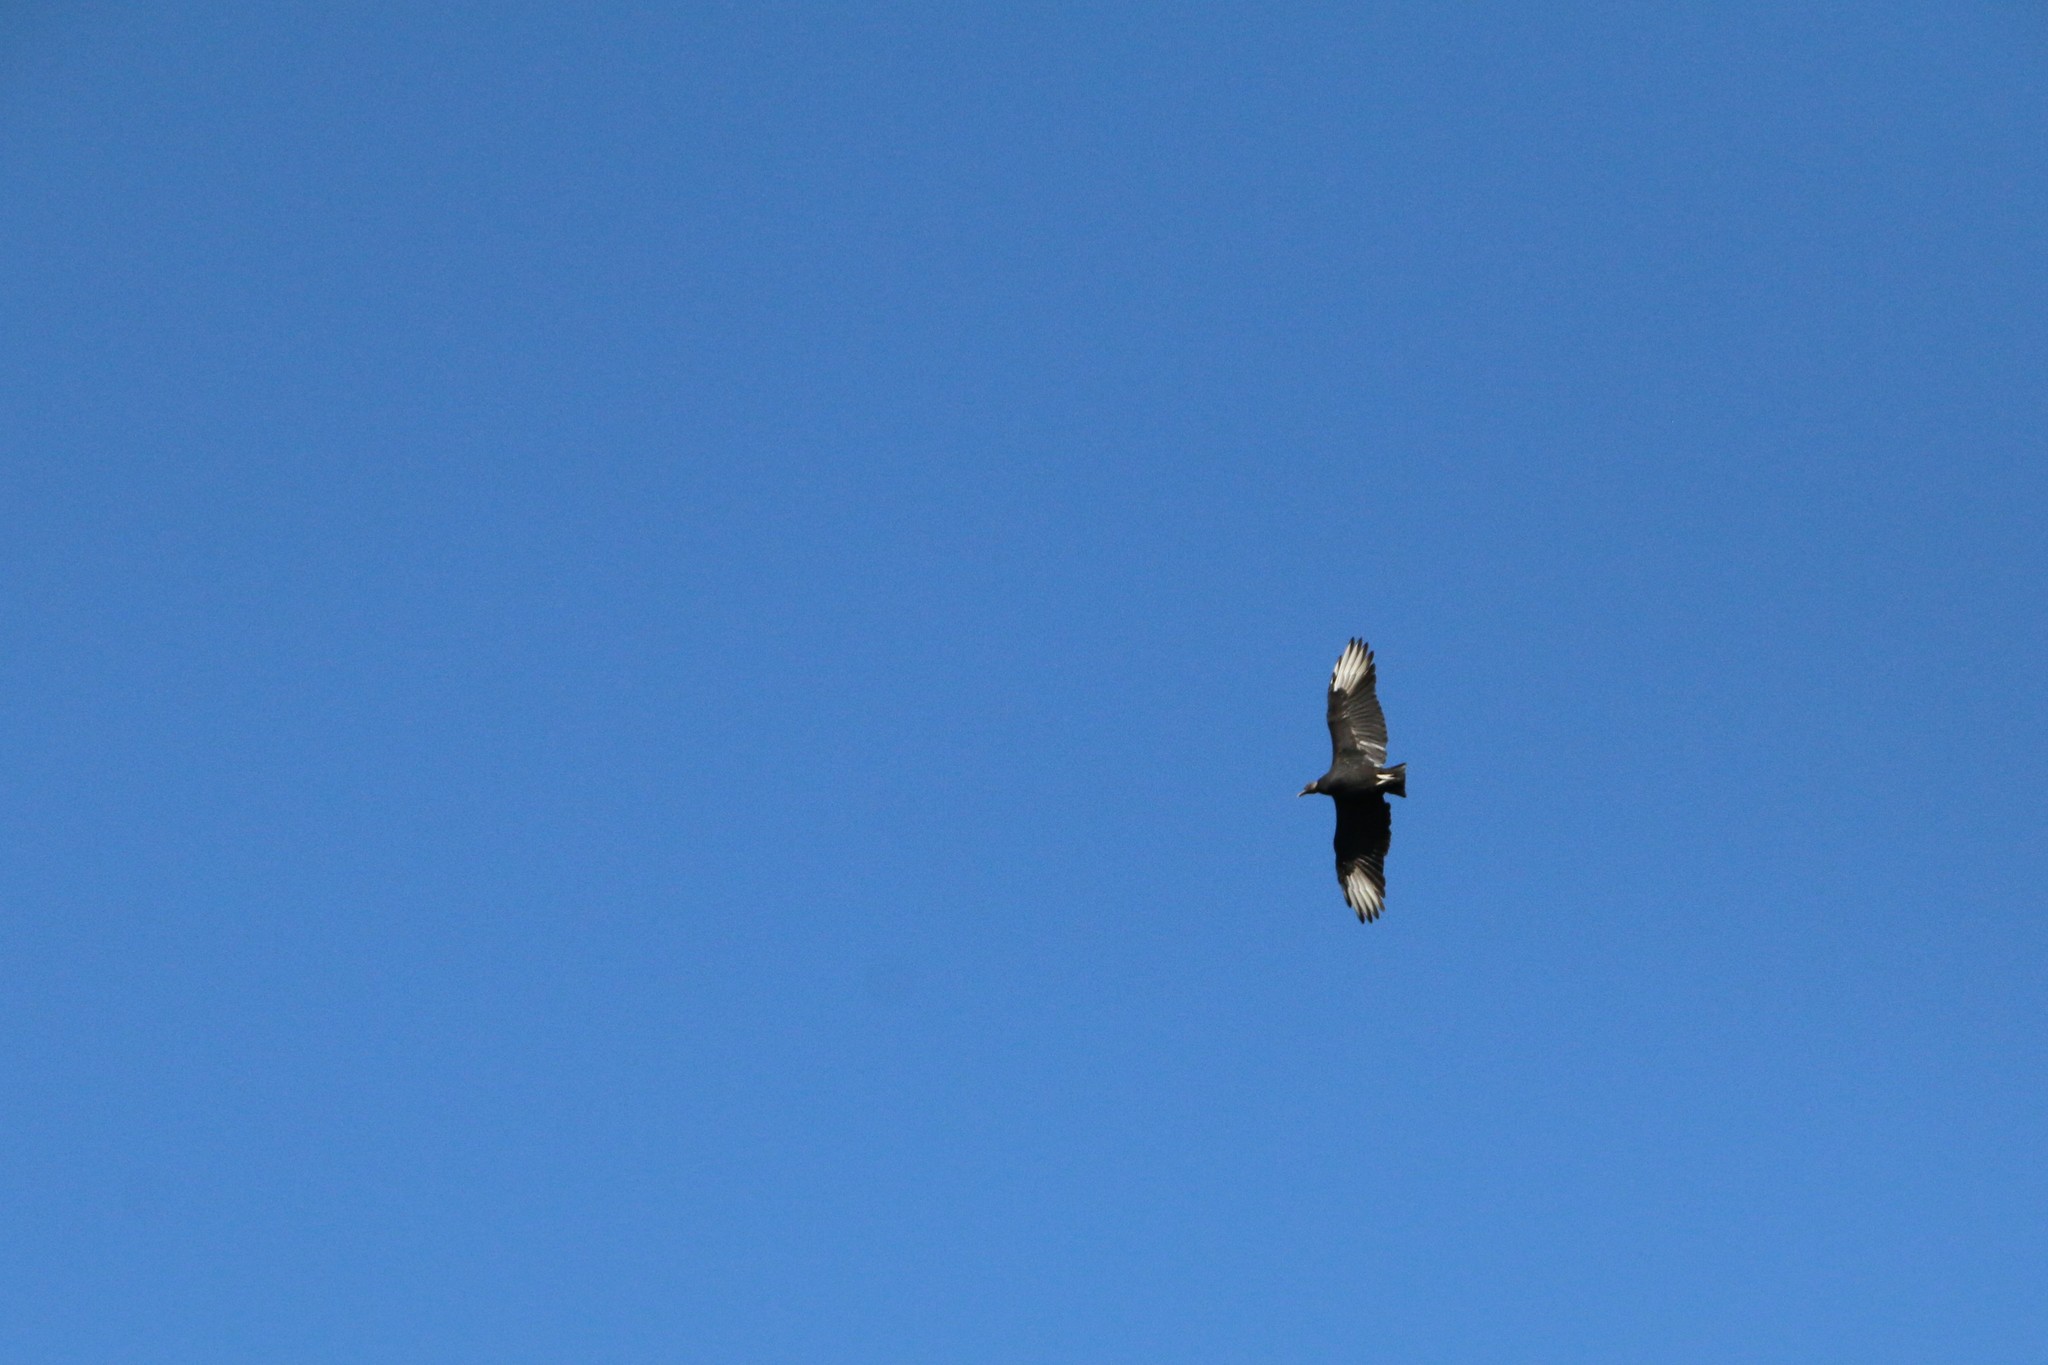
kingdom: Animalia
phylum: Chordata
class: Aves
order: Accipitriformes
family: Cathartidae
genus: Coragyps
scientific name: Coragyps atratus
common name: Black vulture
